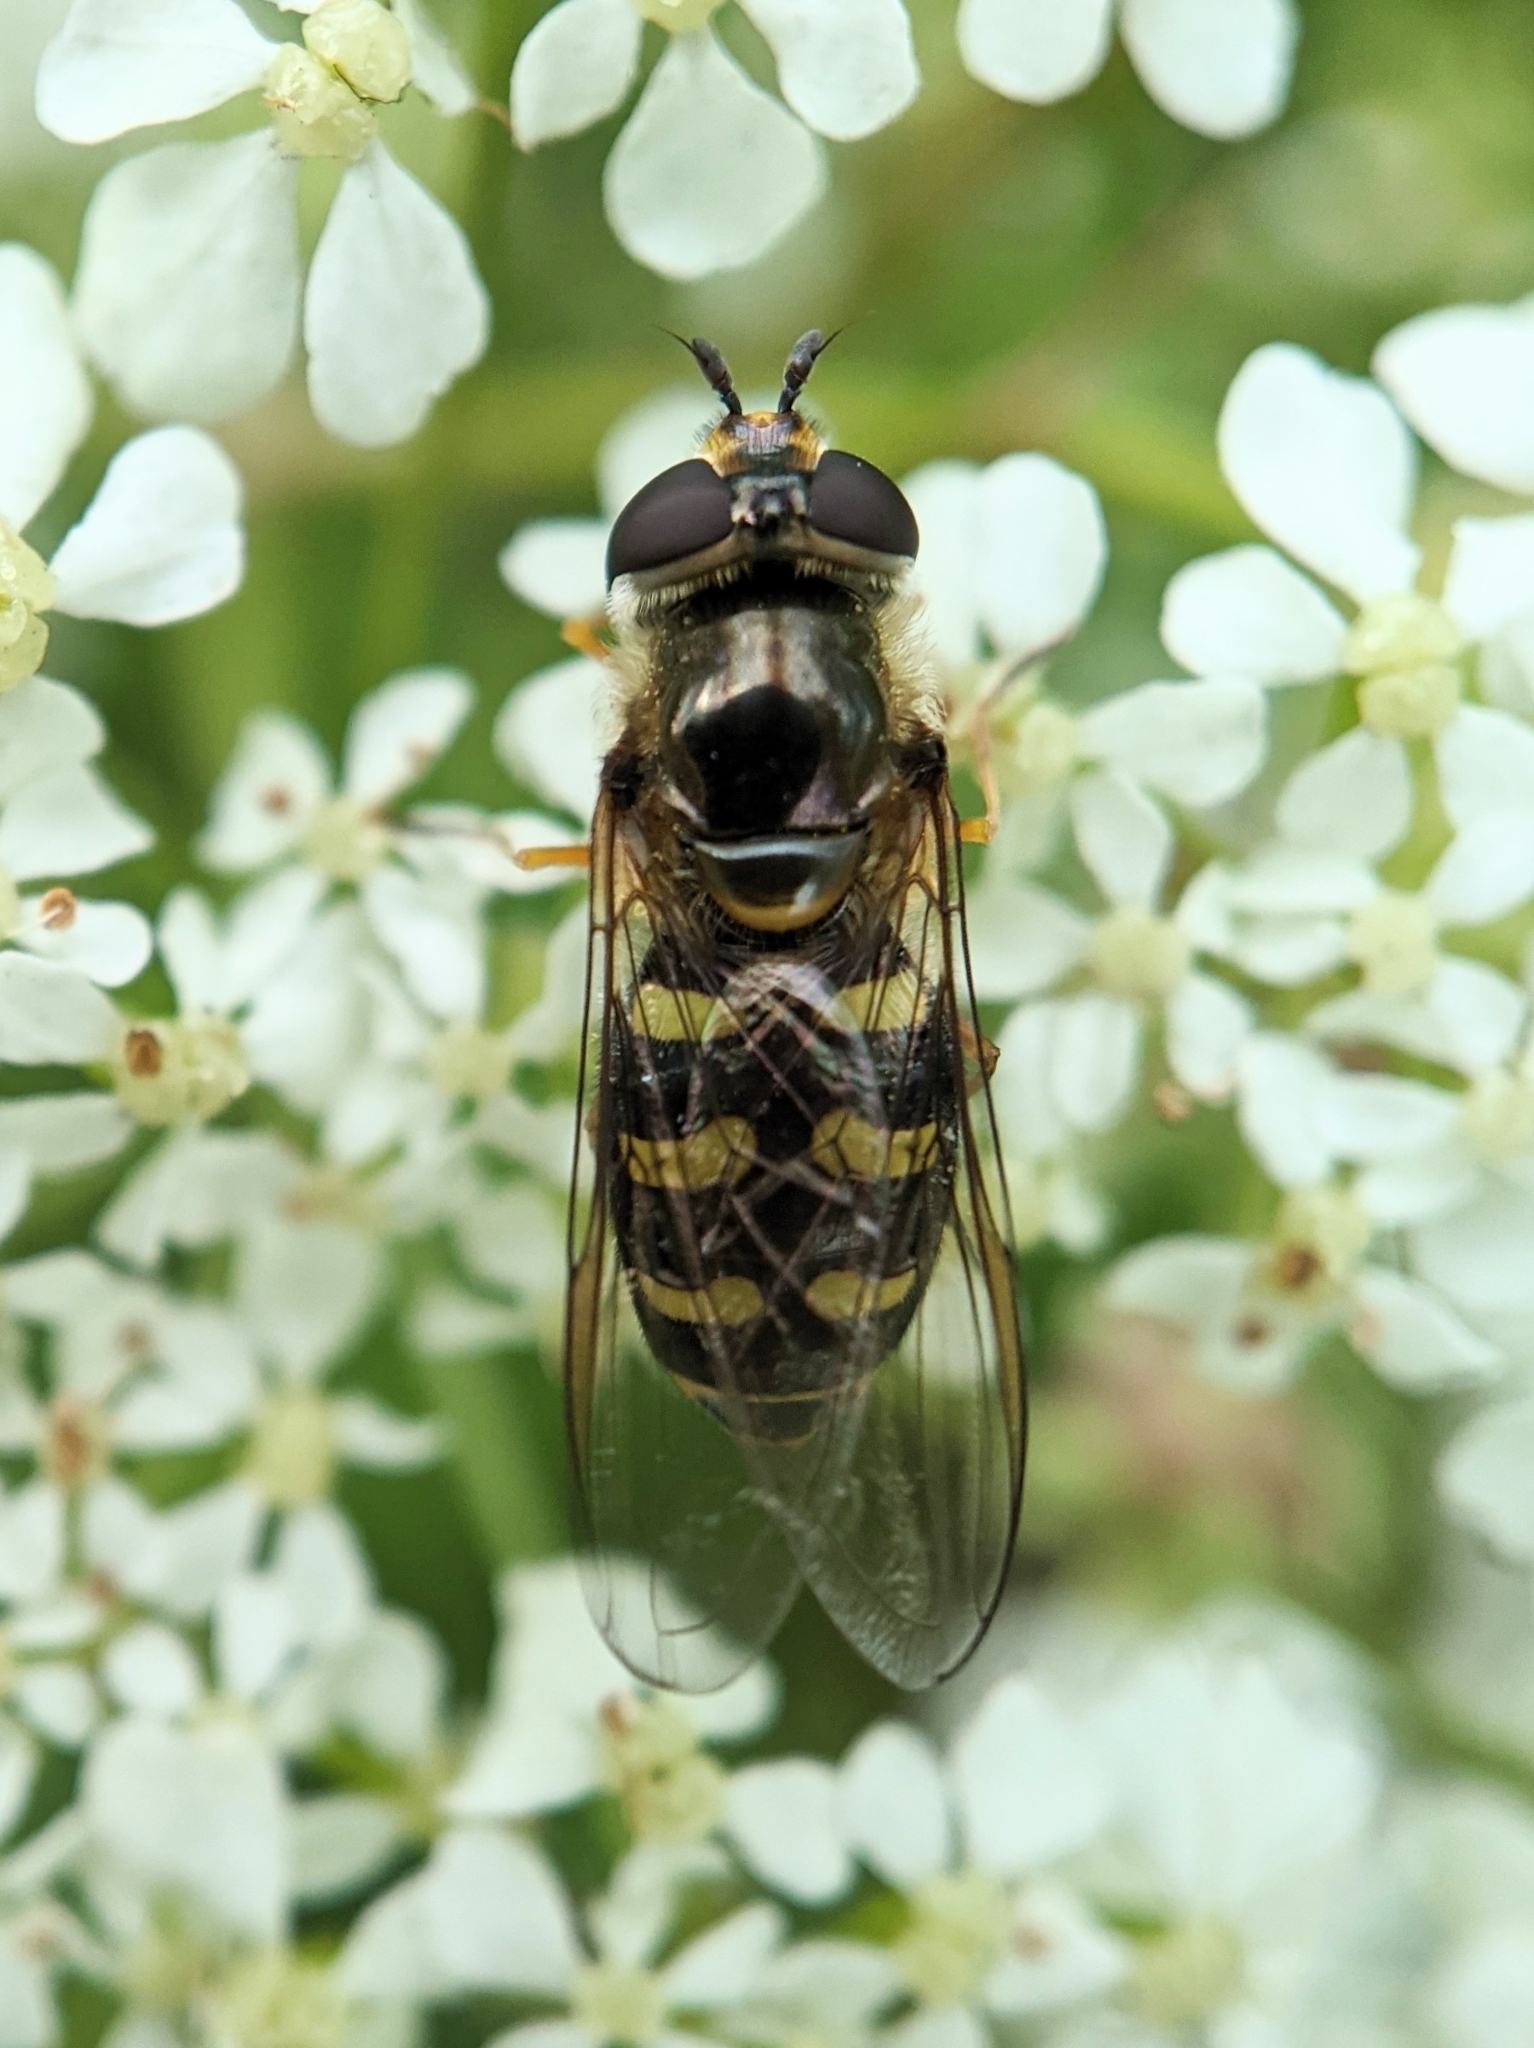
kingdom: Animalia
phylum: Arthropoda
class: Insecta
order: Diptera
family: Syrphidae
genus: Eupeodes
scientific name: Eupeodes
